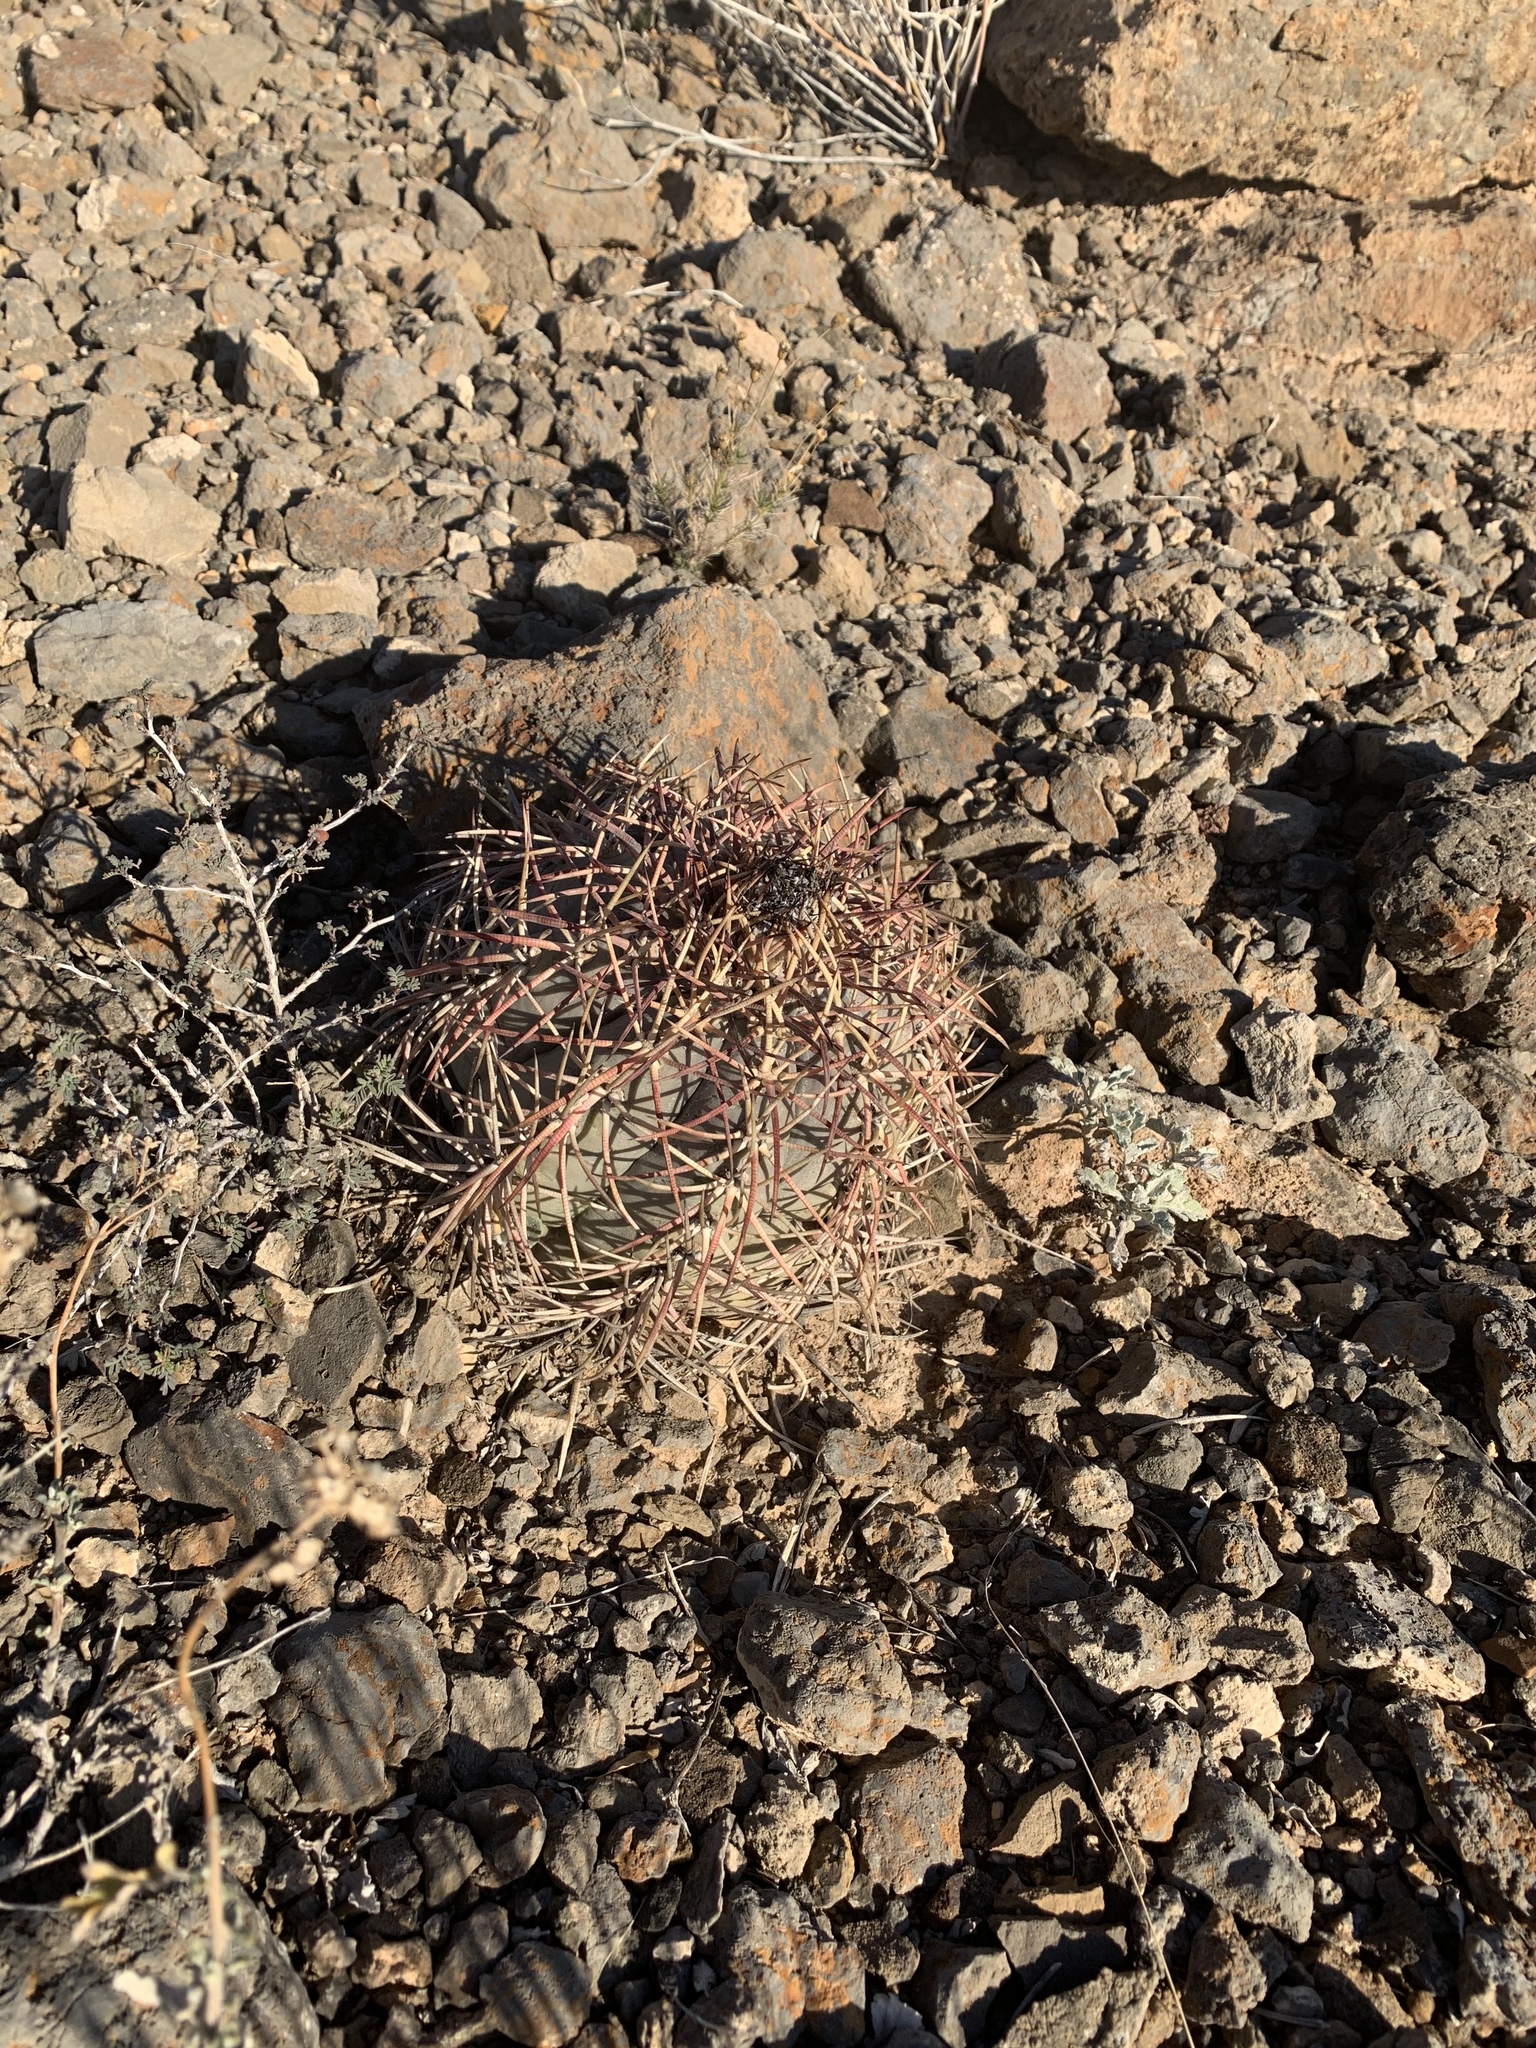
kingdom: Plantae
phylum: Tracheophyta
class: Magnoliopsida
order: Caryophyllales
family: Cactaceae
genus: Echinocactus
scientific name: Echinocactus horizonthalonius
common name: Devilshead
